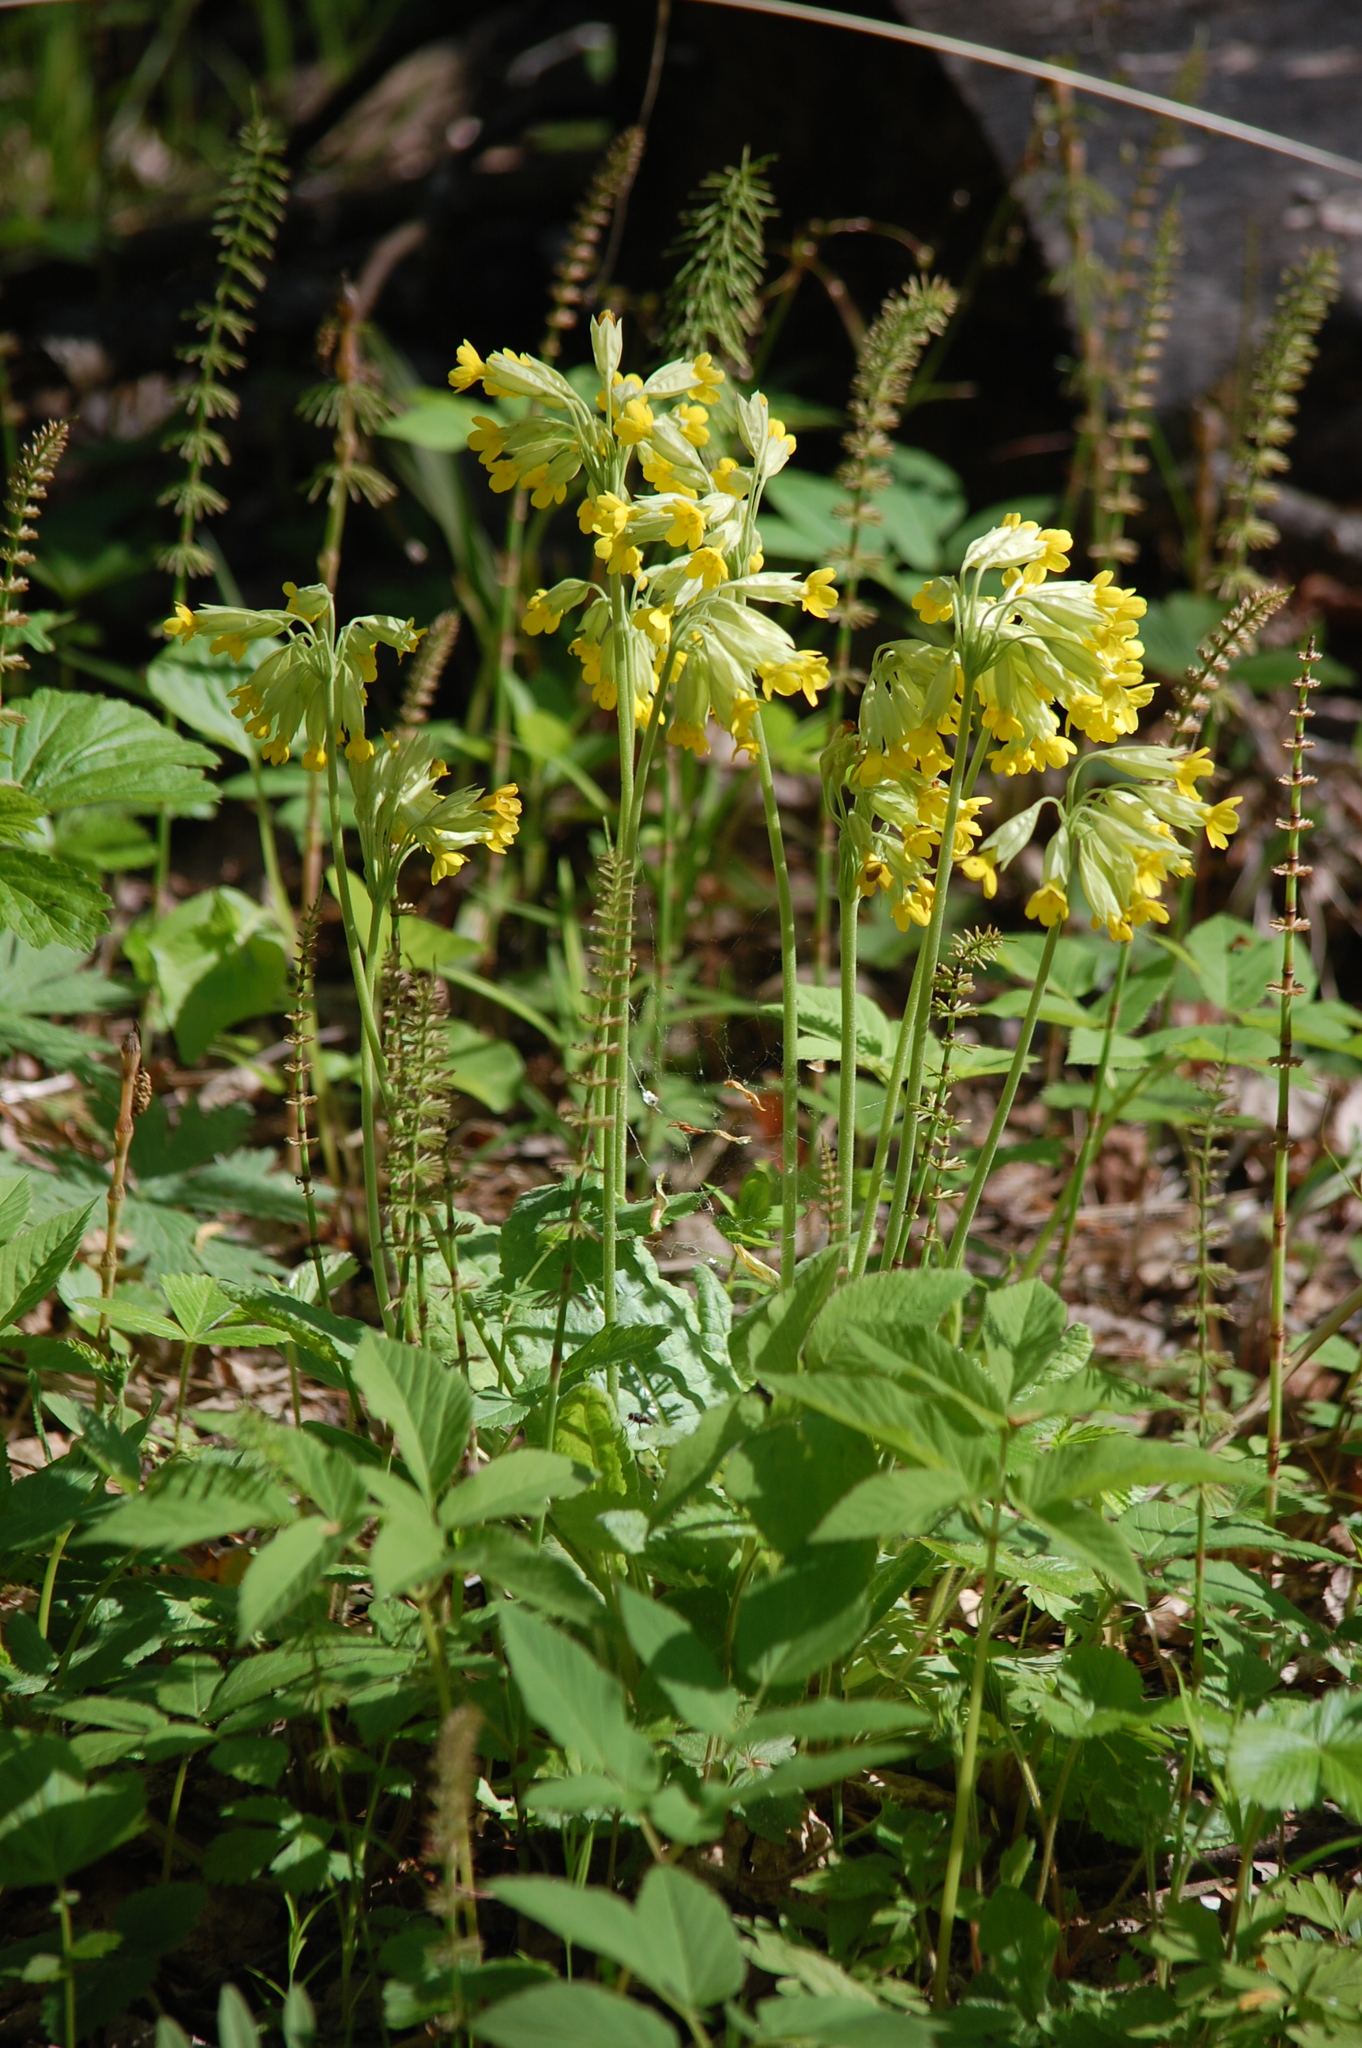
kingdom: Plantae
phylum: Tracheophyta
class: Magnoliopsida
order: Ericales
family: Primulaceae
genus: Primula
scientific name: Primula veris
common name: Cowslip
